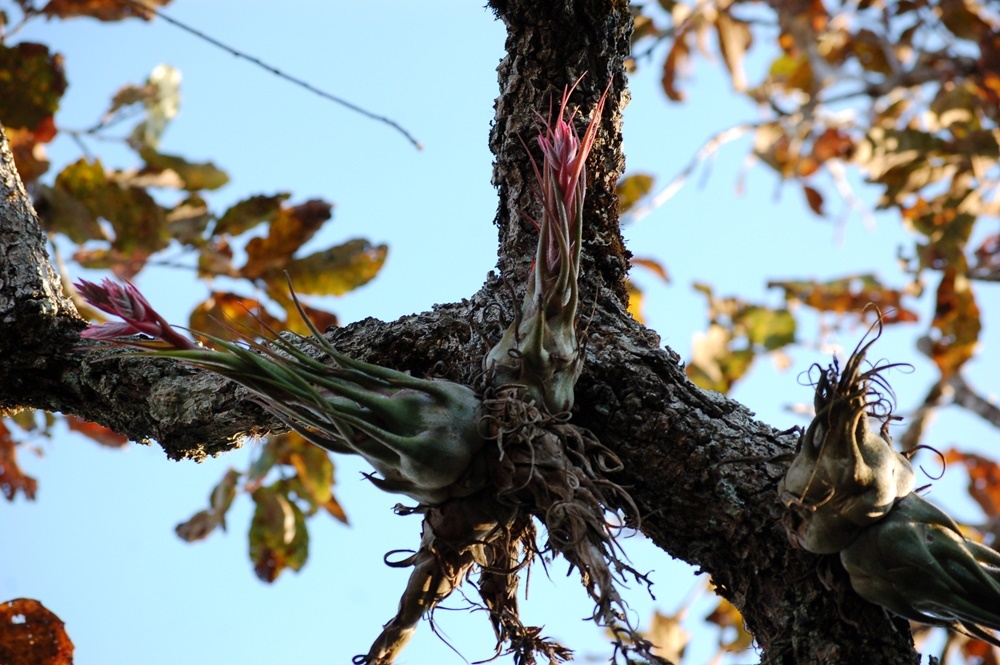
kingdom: Plantae
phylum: Tracheophyta
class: Liliopsida
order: Poales
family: Bromeliaceae
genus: Tillandsia
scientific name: Tillandsia seleriana
